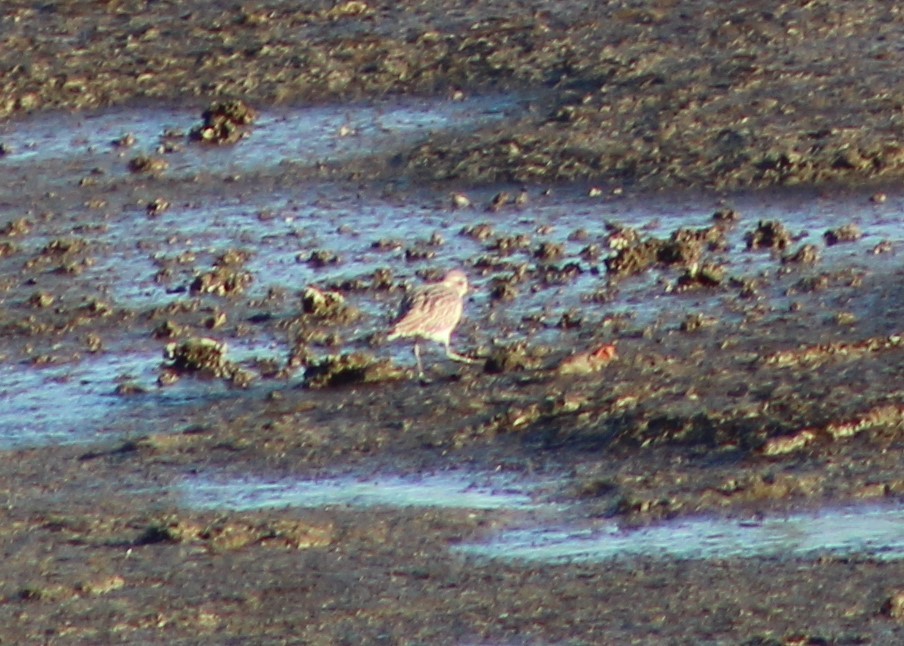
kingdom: Animalia
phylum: Chordata
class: Aves
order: Charadriiformes
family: Charadriidae
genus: Pluvialis
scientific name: Pluvialis squatarola
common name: Grey plover
